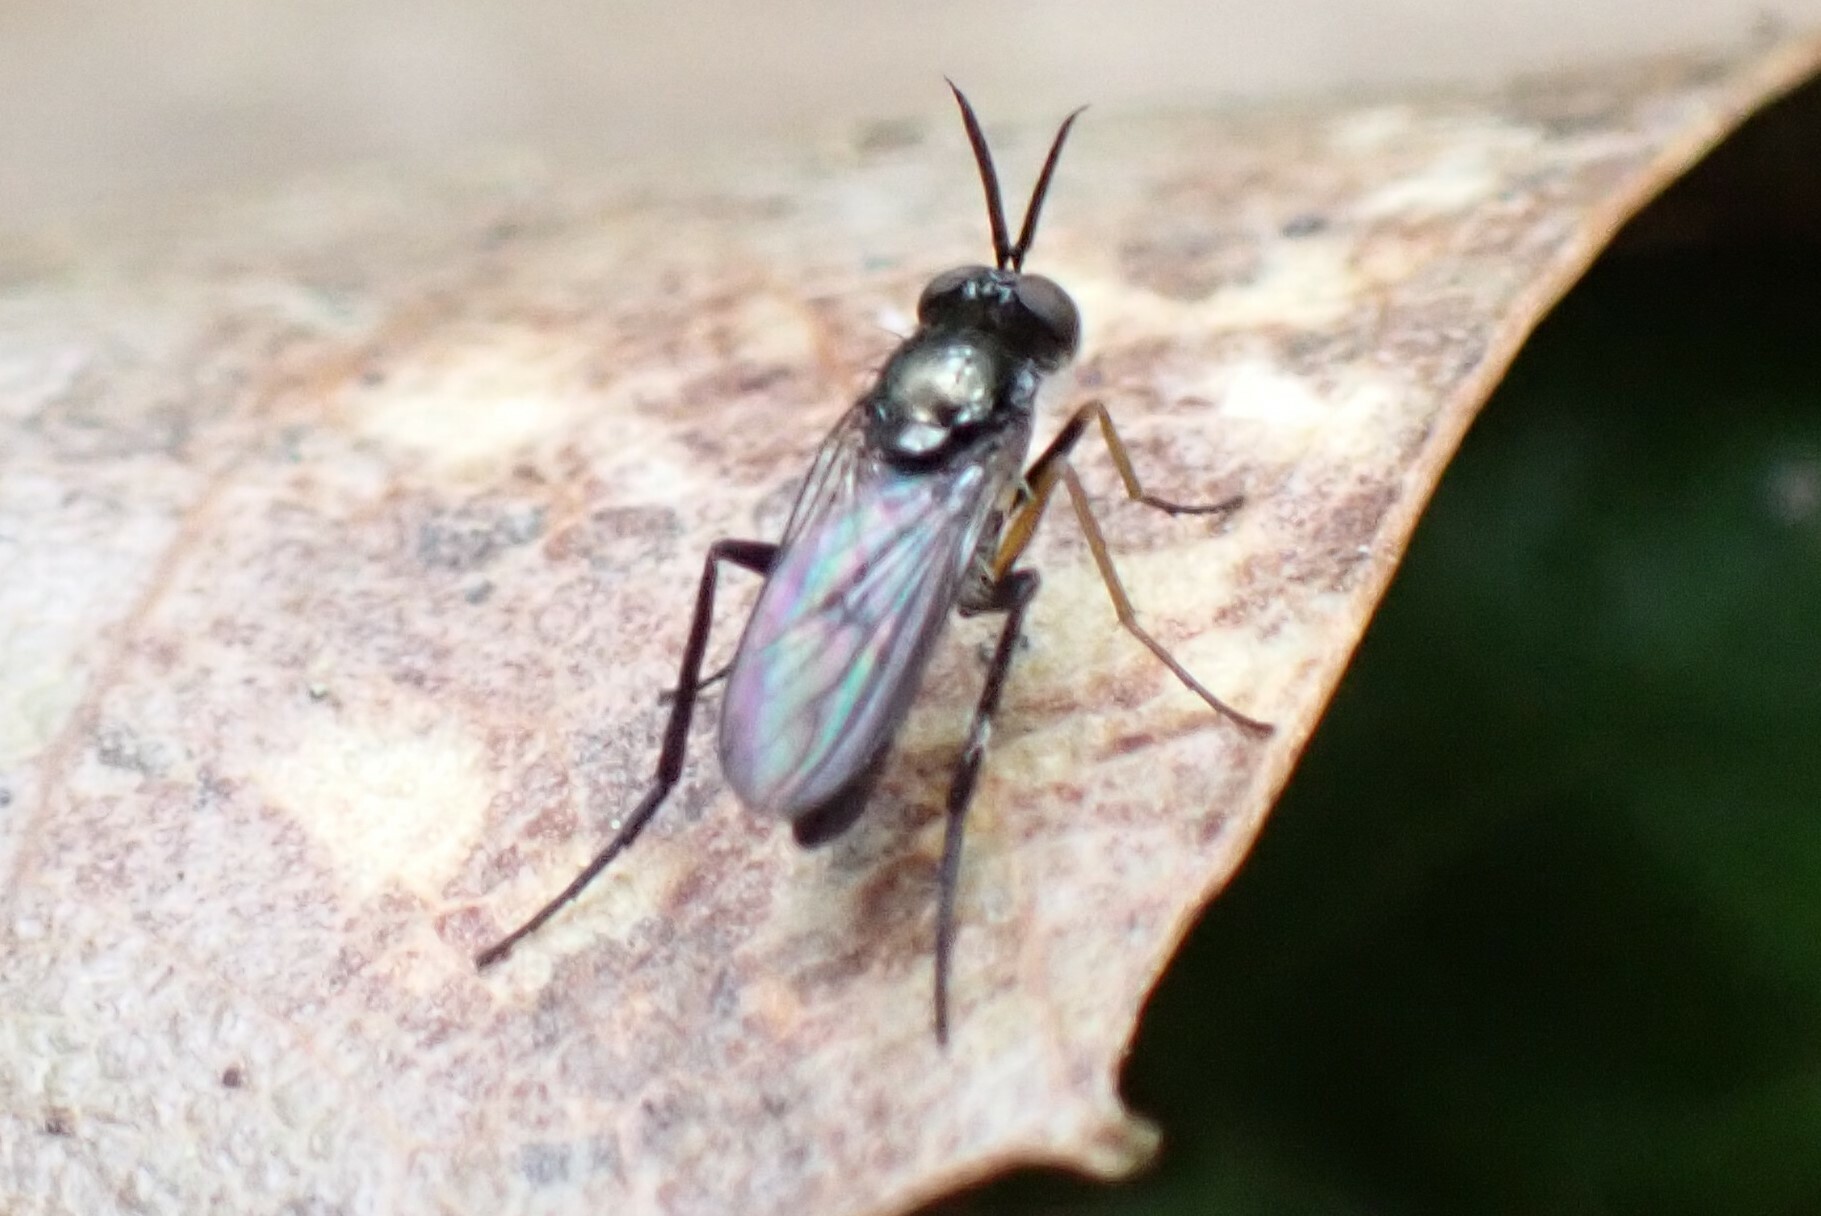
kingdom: Animalia
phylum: Arthropoda
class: Insecta
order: Diptera
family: Dolichopodidae
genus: Rhaphium
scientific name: Rhaphium lugubre
